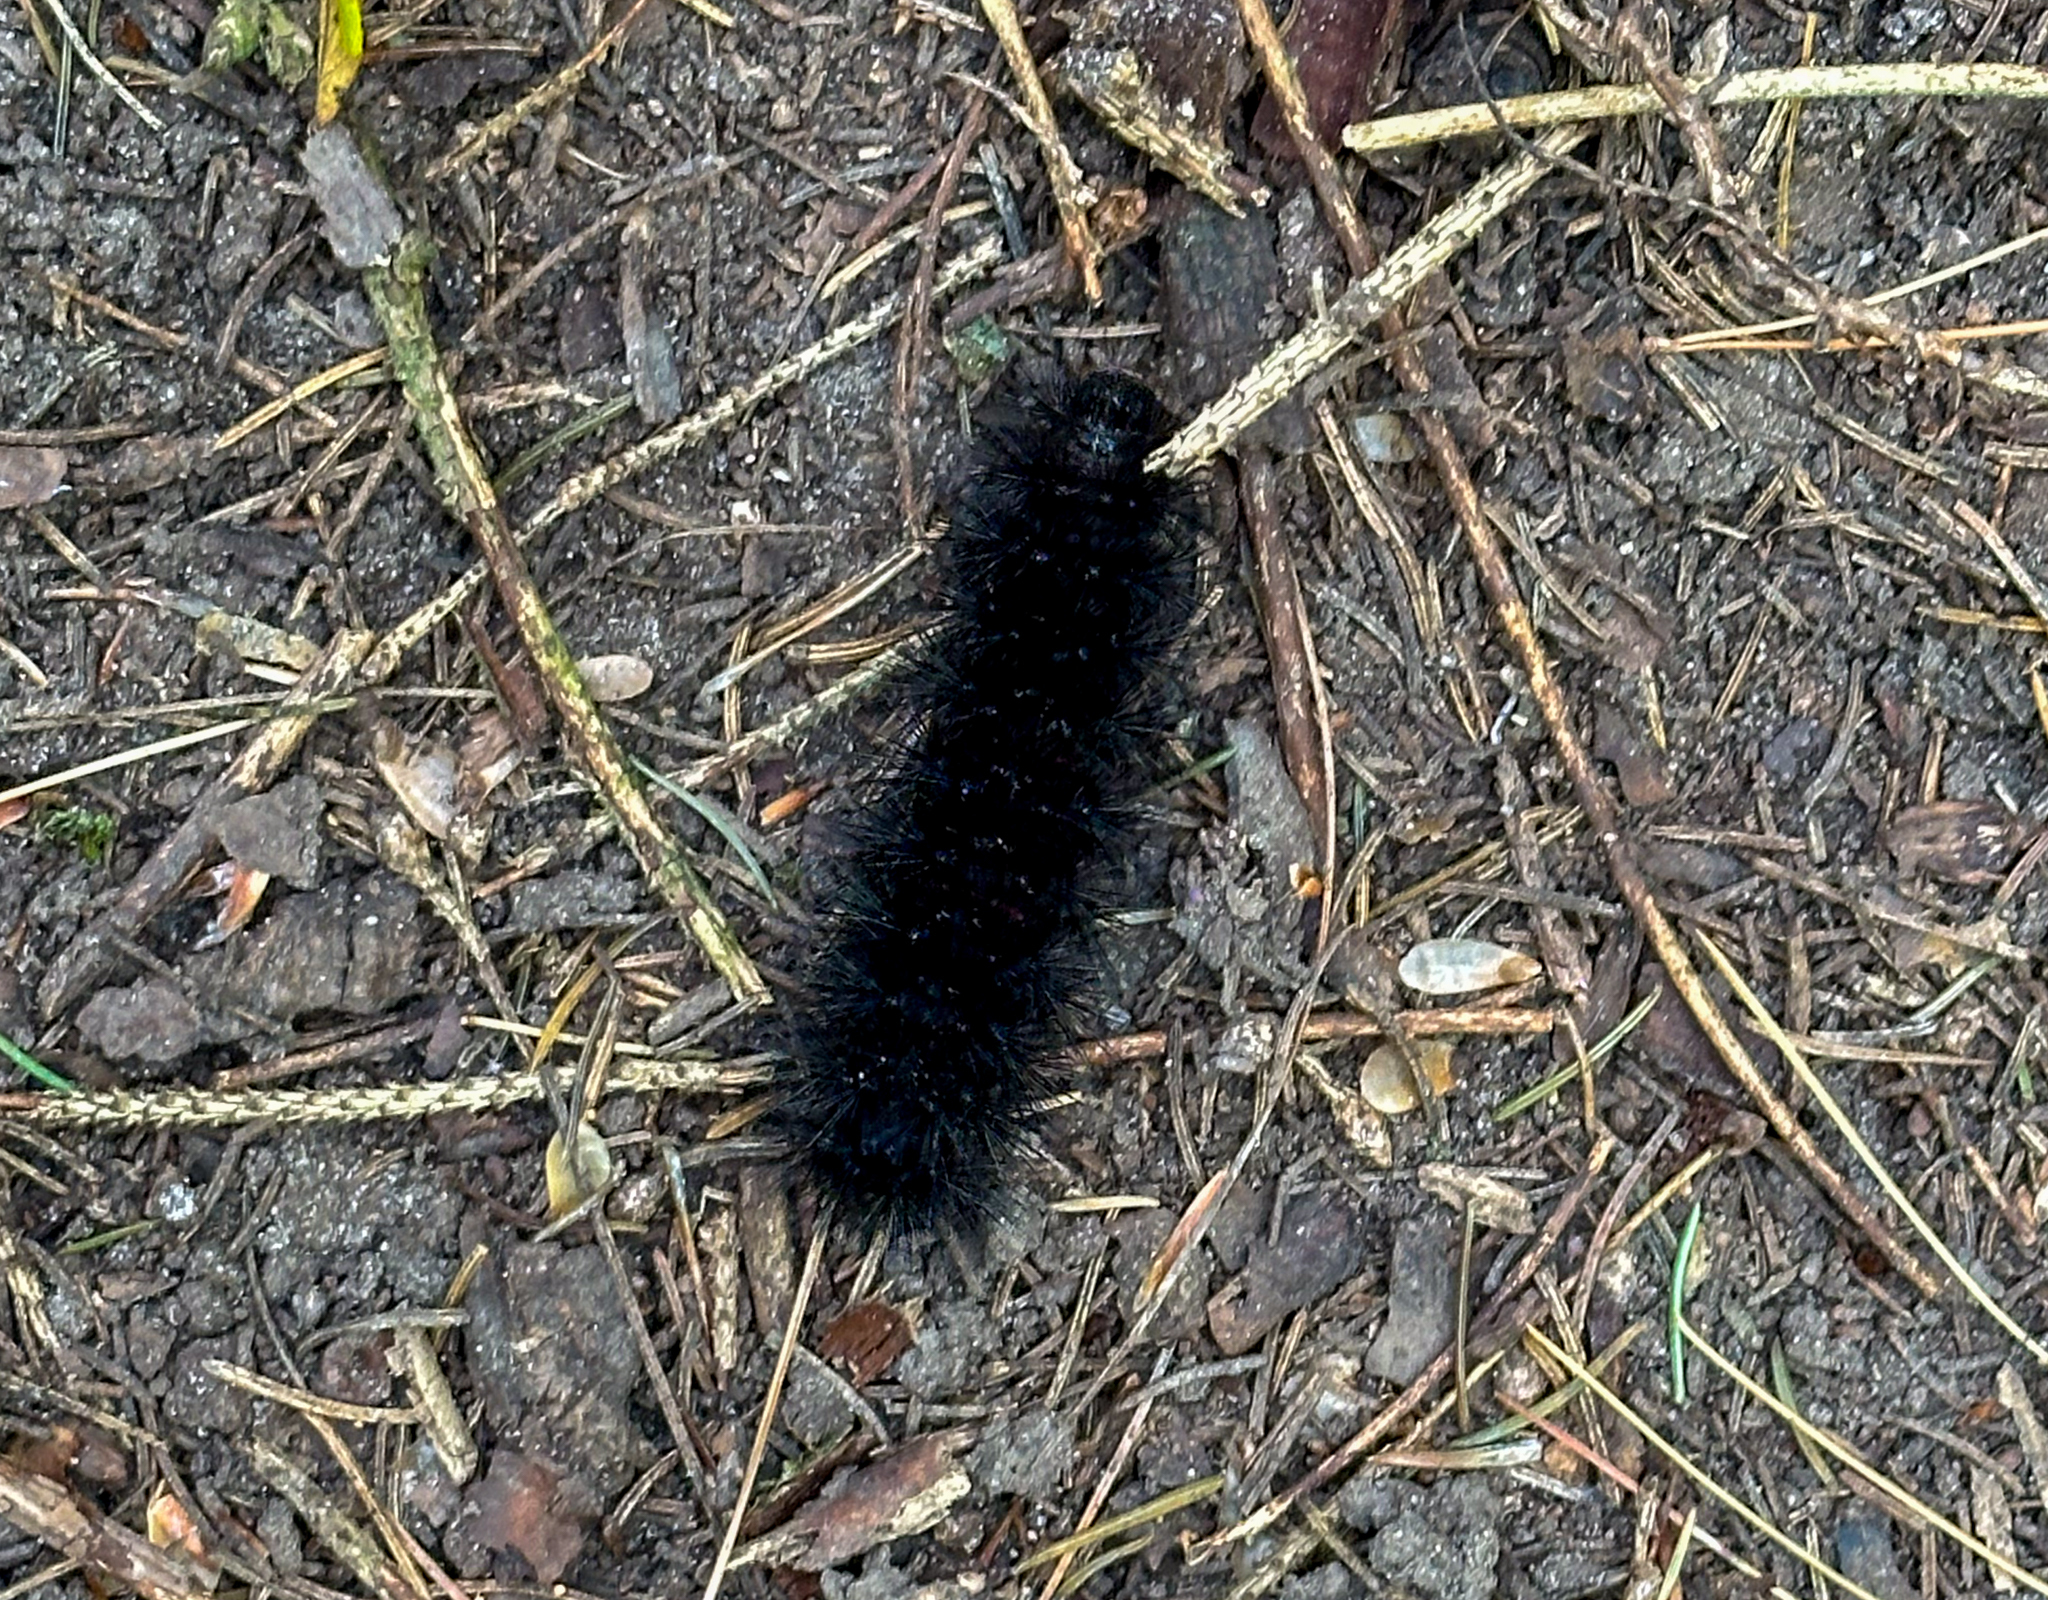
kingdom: Animalia
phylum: Arthropoda
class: Insecta
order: Lepidoptera
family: Erebidae
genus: Hypercompe
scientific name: Hypercompe scribonia
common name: Giant leopard moth
